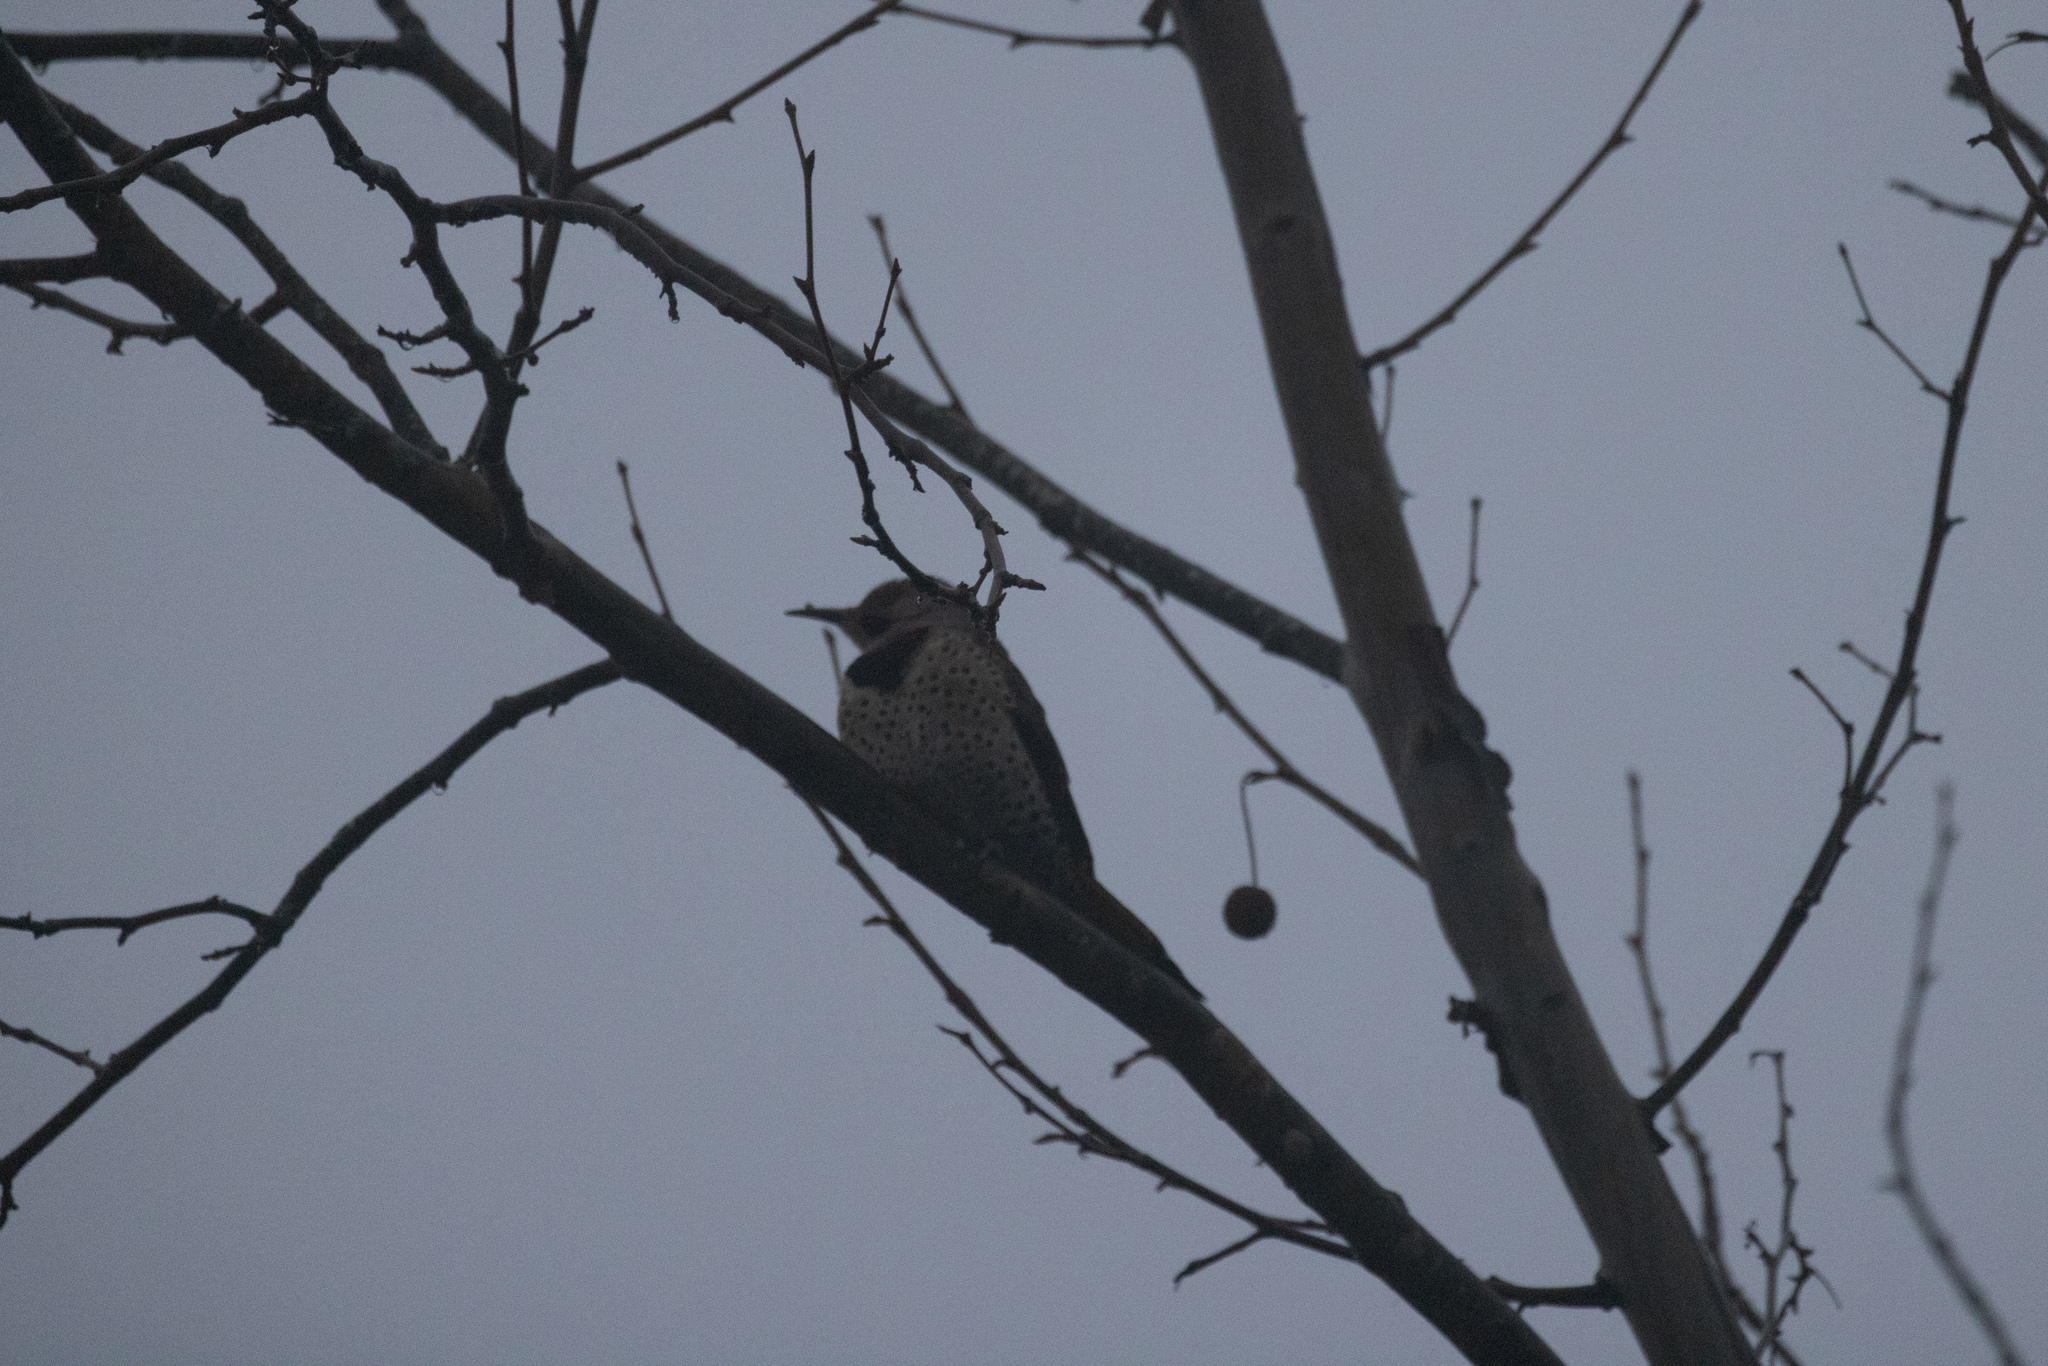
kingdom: Animalia
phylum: Chordata
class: Aves
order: Piciformes
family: Picidae
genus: Colaptes
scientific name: Colaptes auratus
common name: Northern flicker
